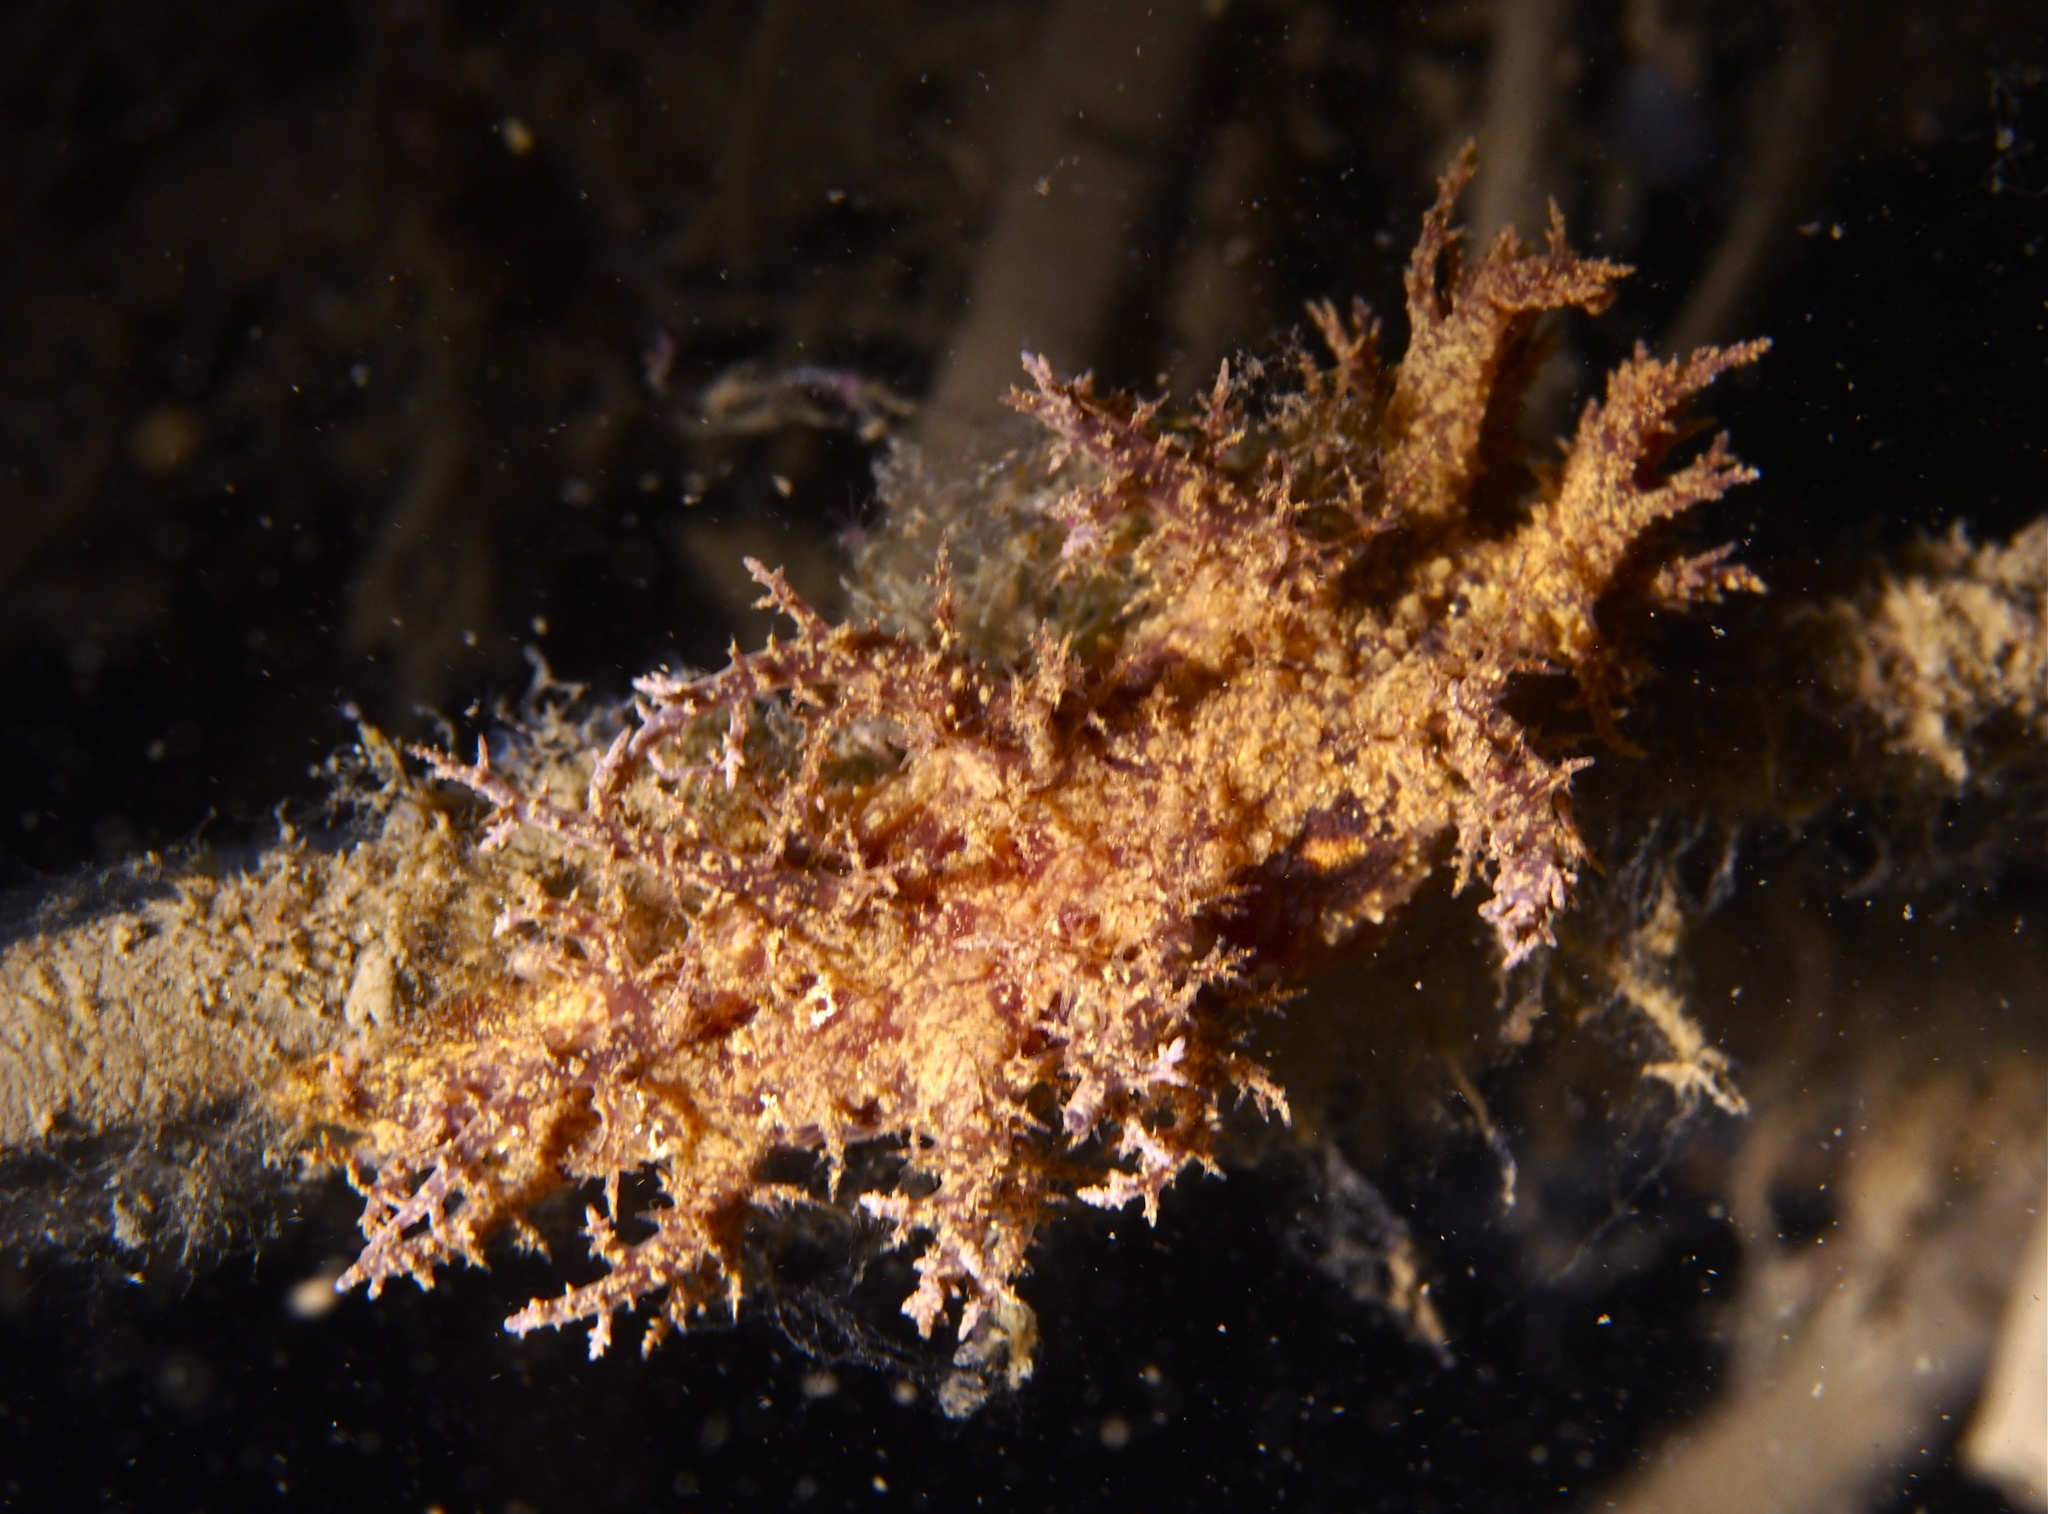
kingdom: Animalia
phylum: Mollusca
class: Gastropoda
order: Nudibranchia
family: Dendronotidae
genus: Dendronotus
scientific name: Dendronotus europaeus
